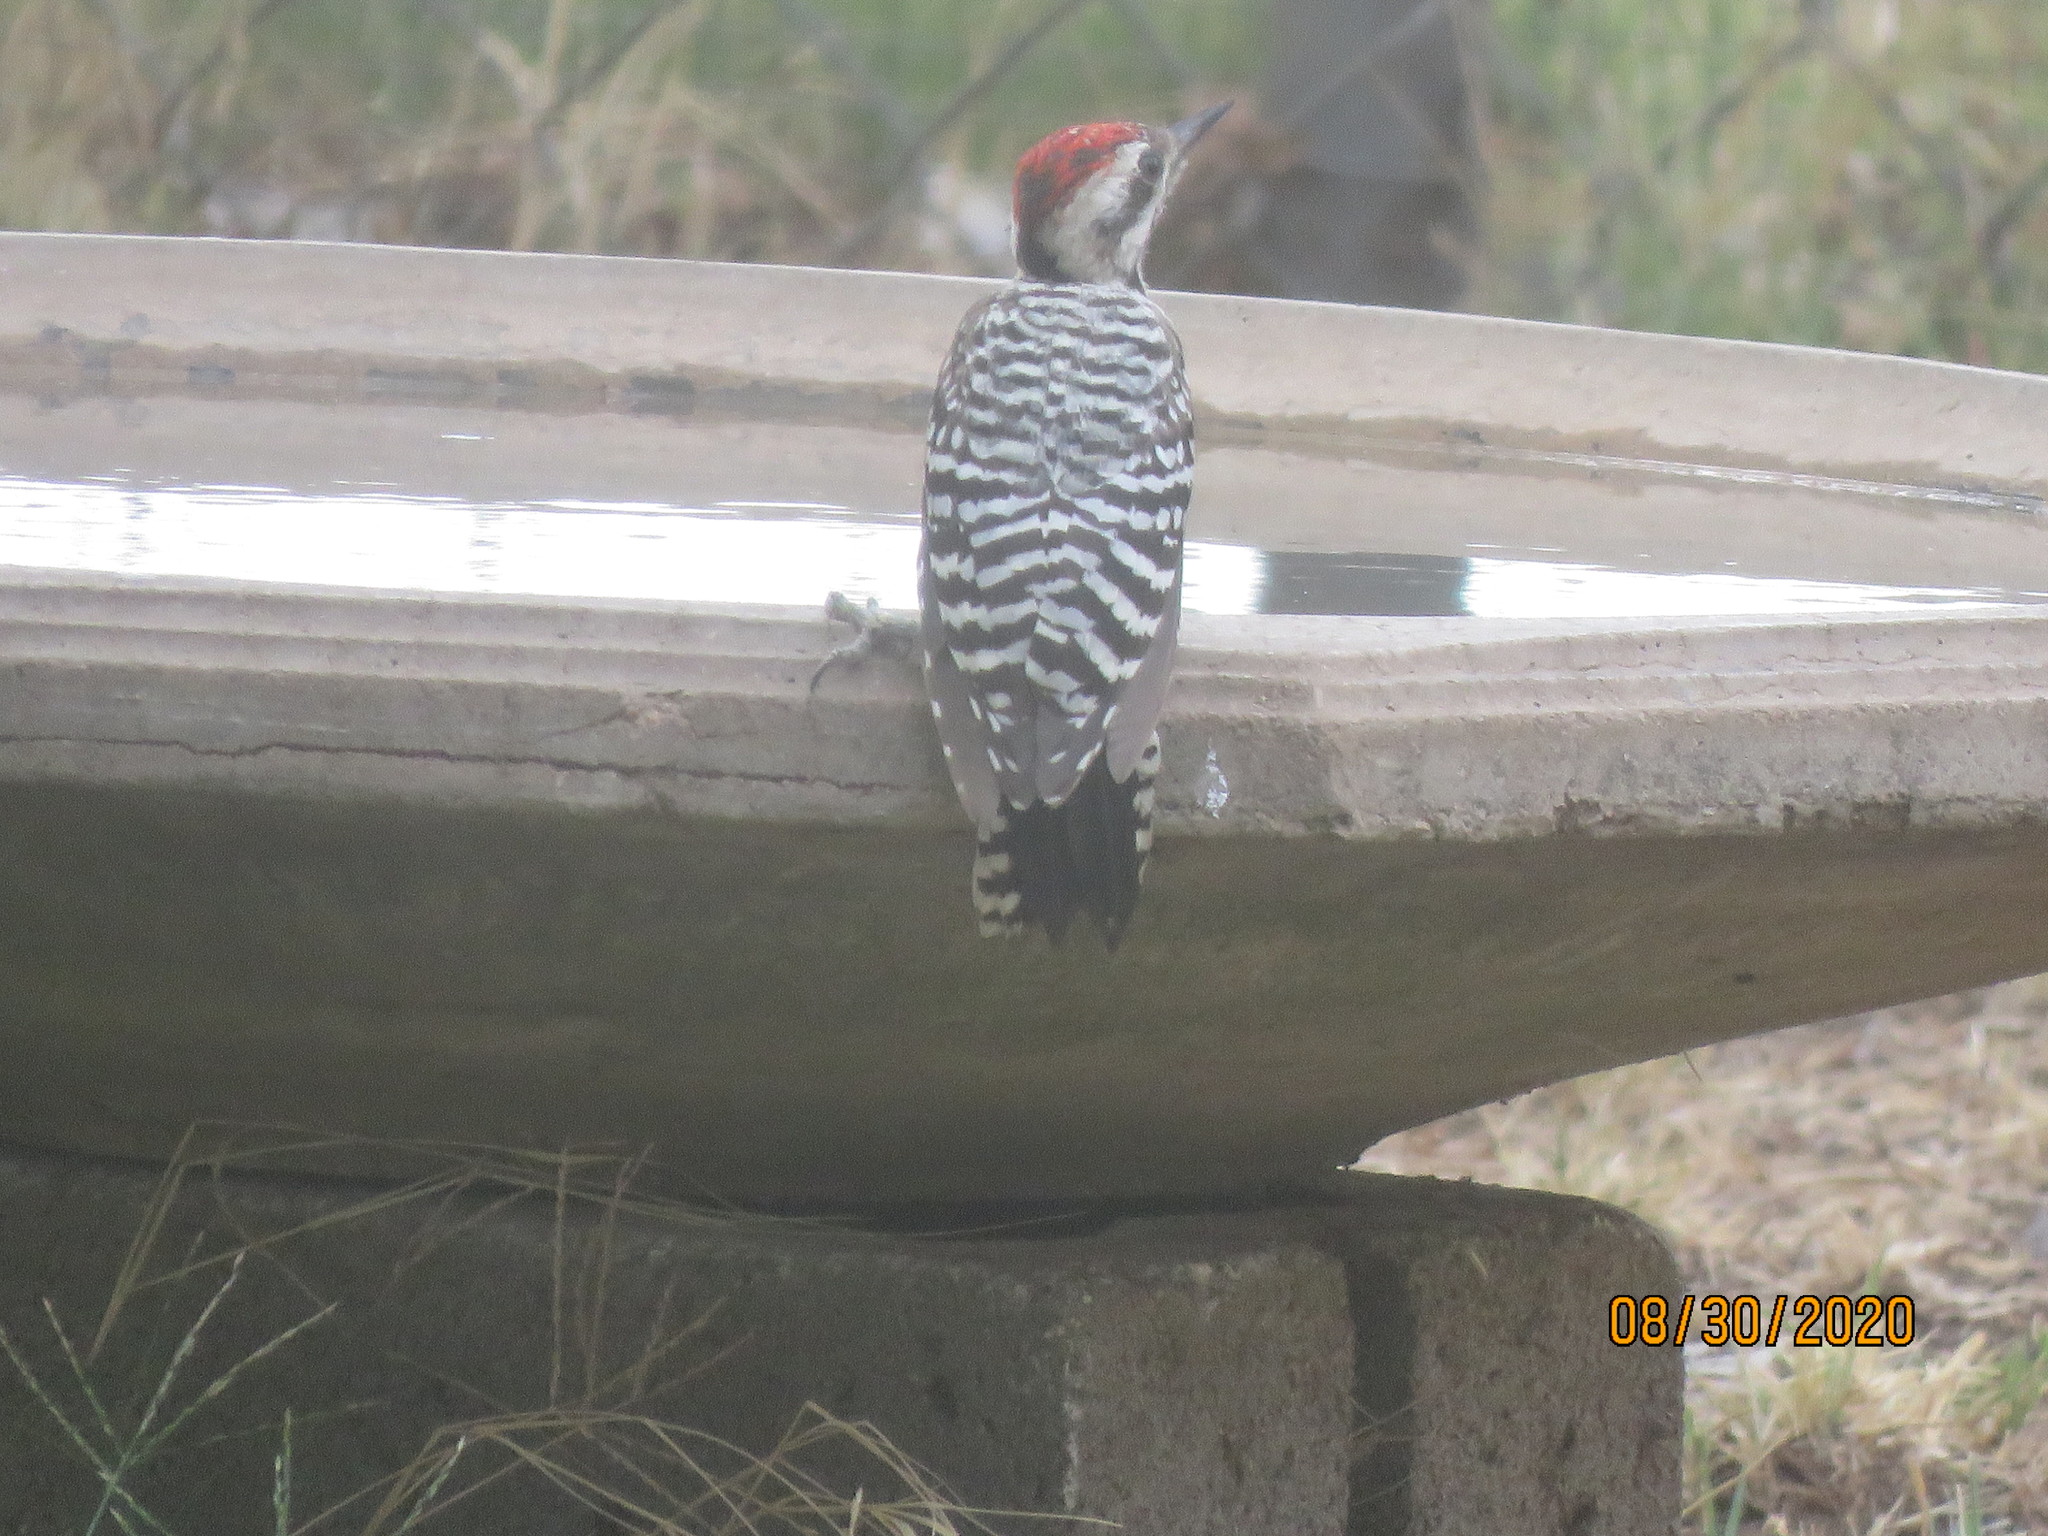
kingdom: Animalia
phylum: Chordata
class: Aves
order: Piciformes
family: Picidae
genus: Dryobates
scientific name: Dryobates scalaris
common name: Ladder-backed woodpecker
